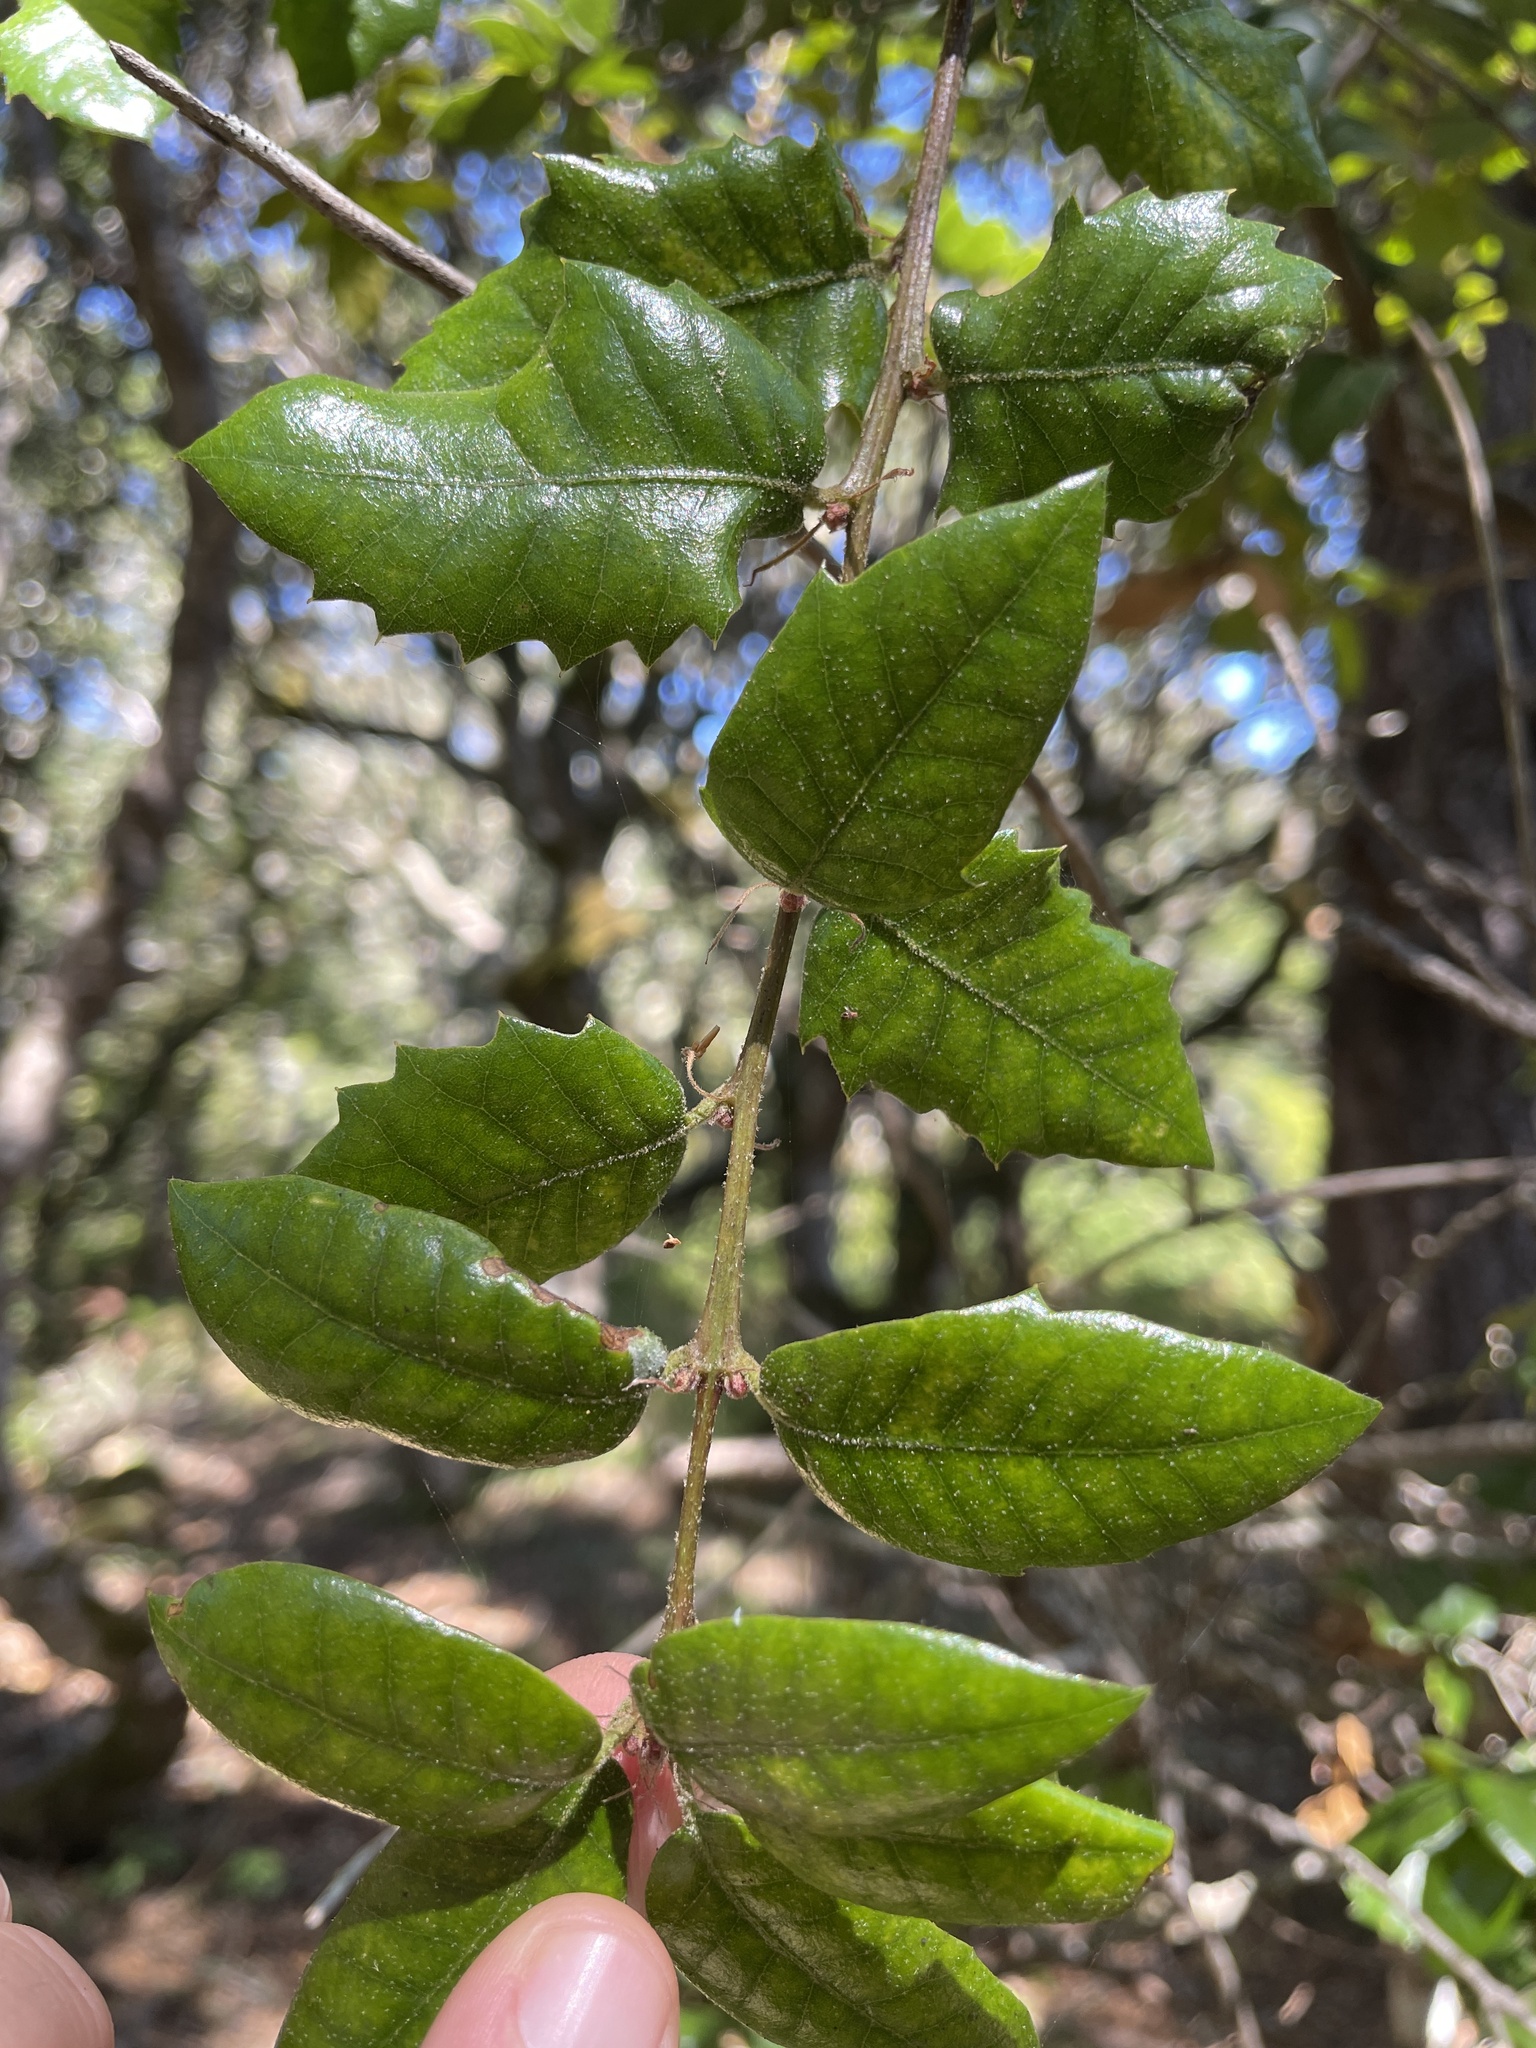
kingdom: Plantae
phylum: Tracheophyta
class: Magnoliopsida
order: Fagales
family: Fagaceae
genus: Quercus
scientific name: Quercus chrysolepis
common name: Canyon live oak
